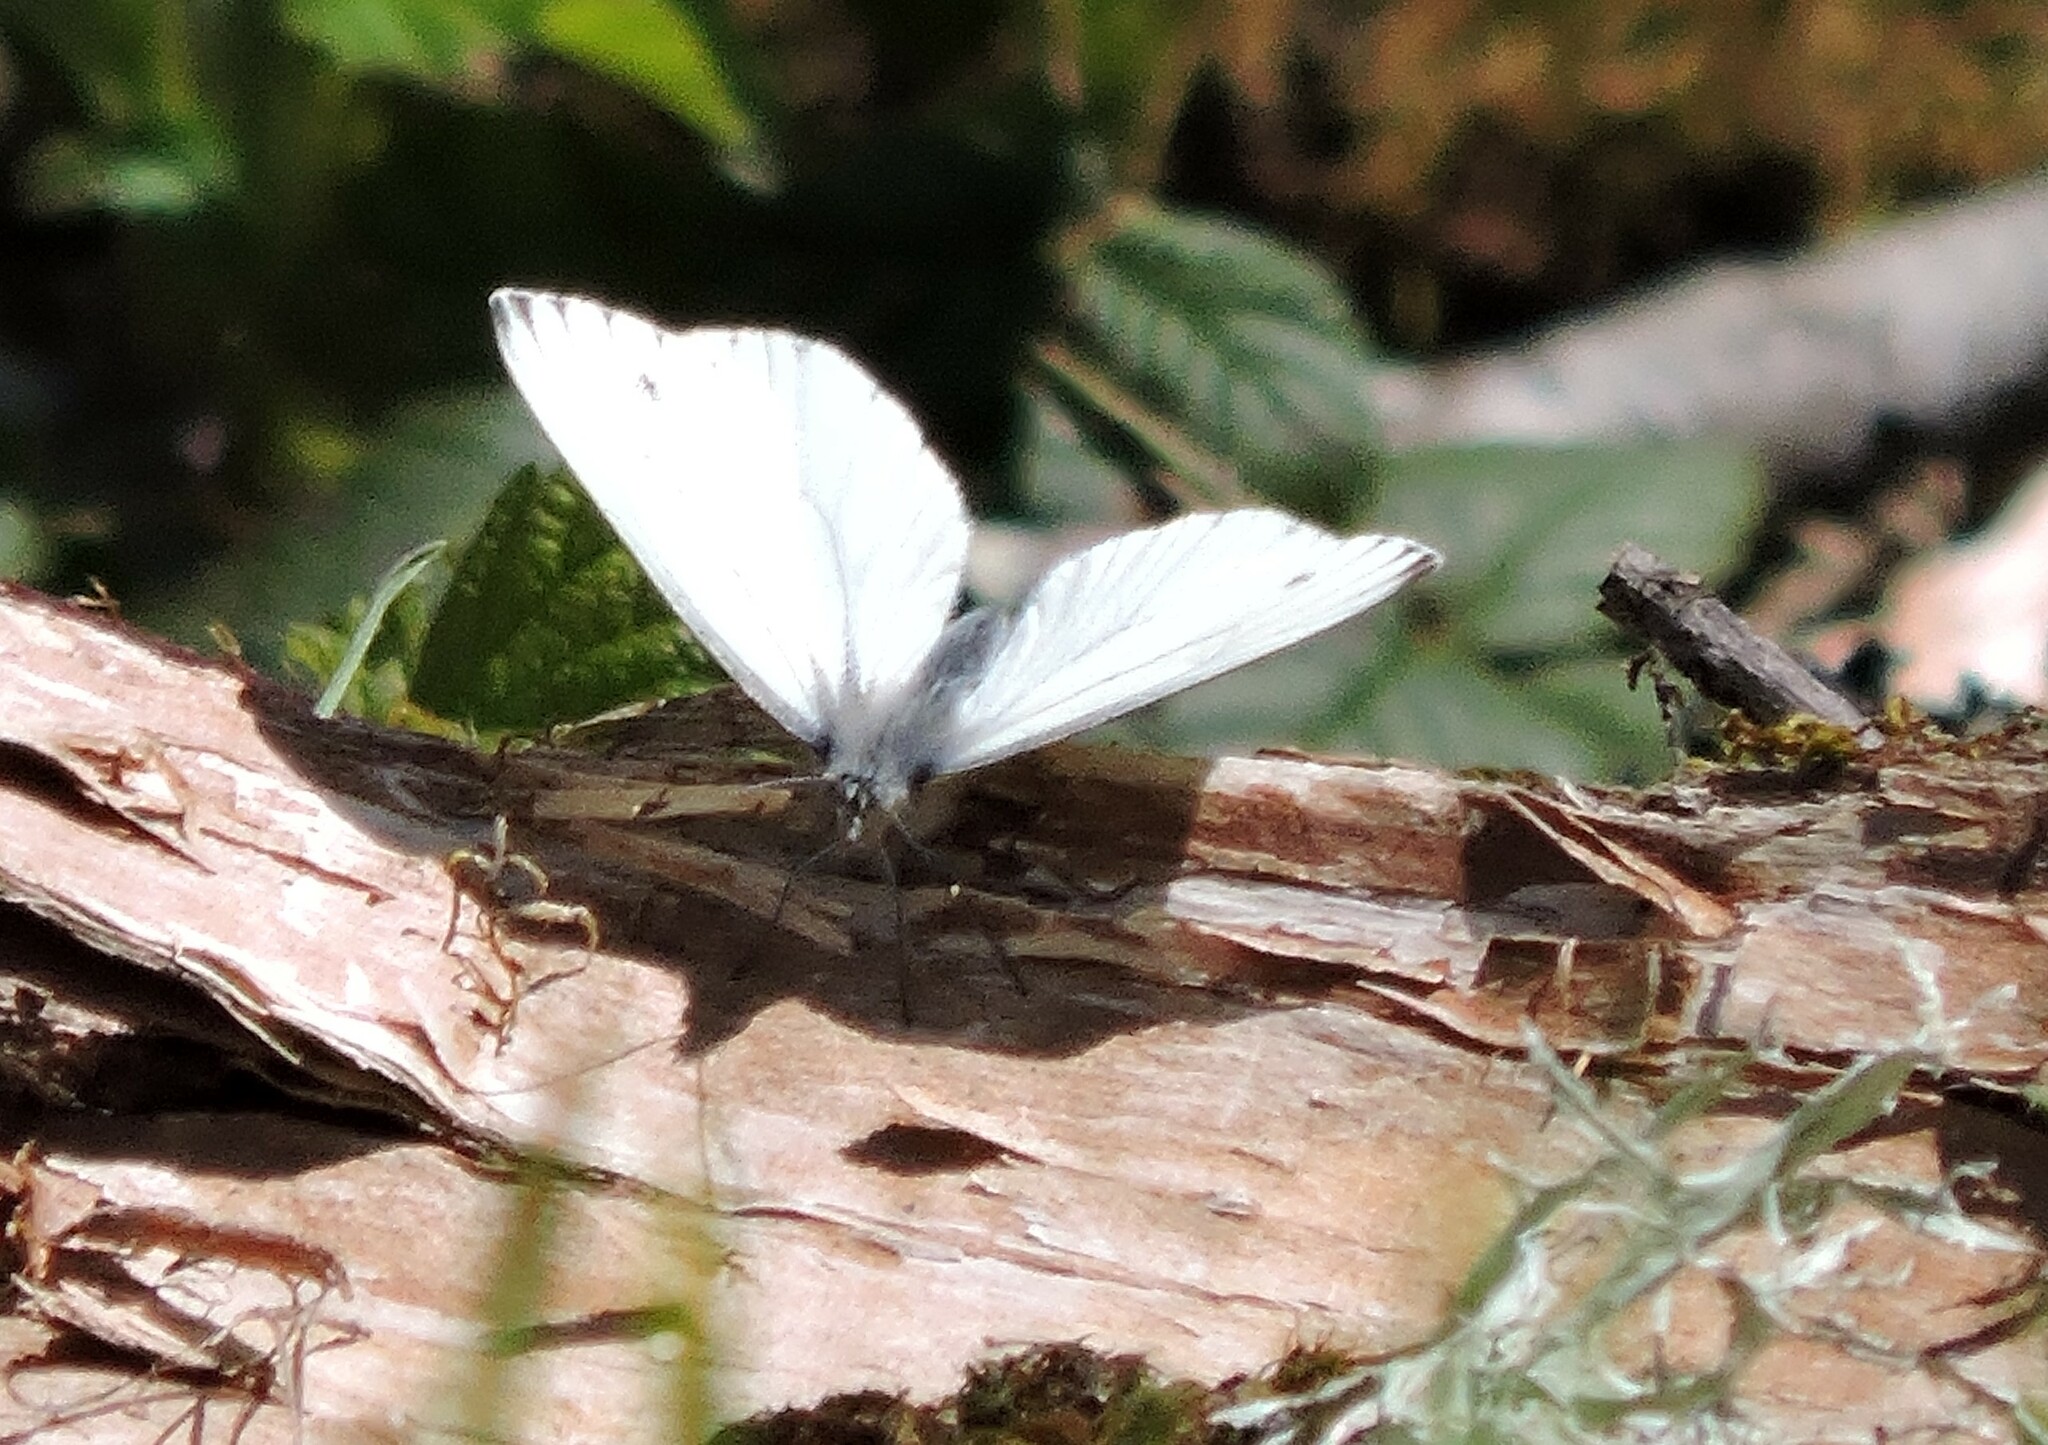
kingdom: Animalia
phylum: Arthropoda
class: Insecta
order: Lepidoptera
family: Pieridae
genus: Pieris
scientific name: Pieris marginalis
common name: Margined white
